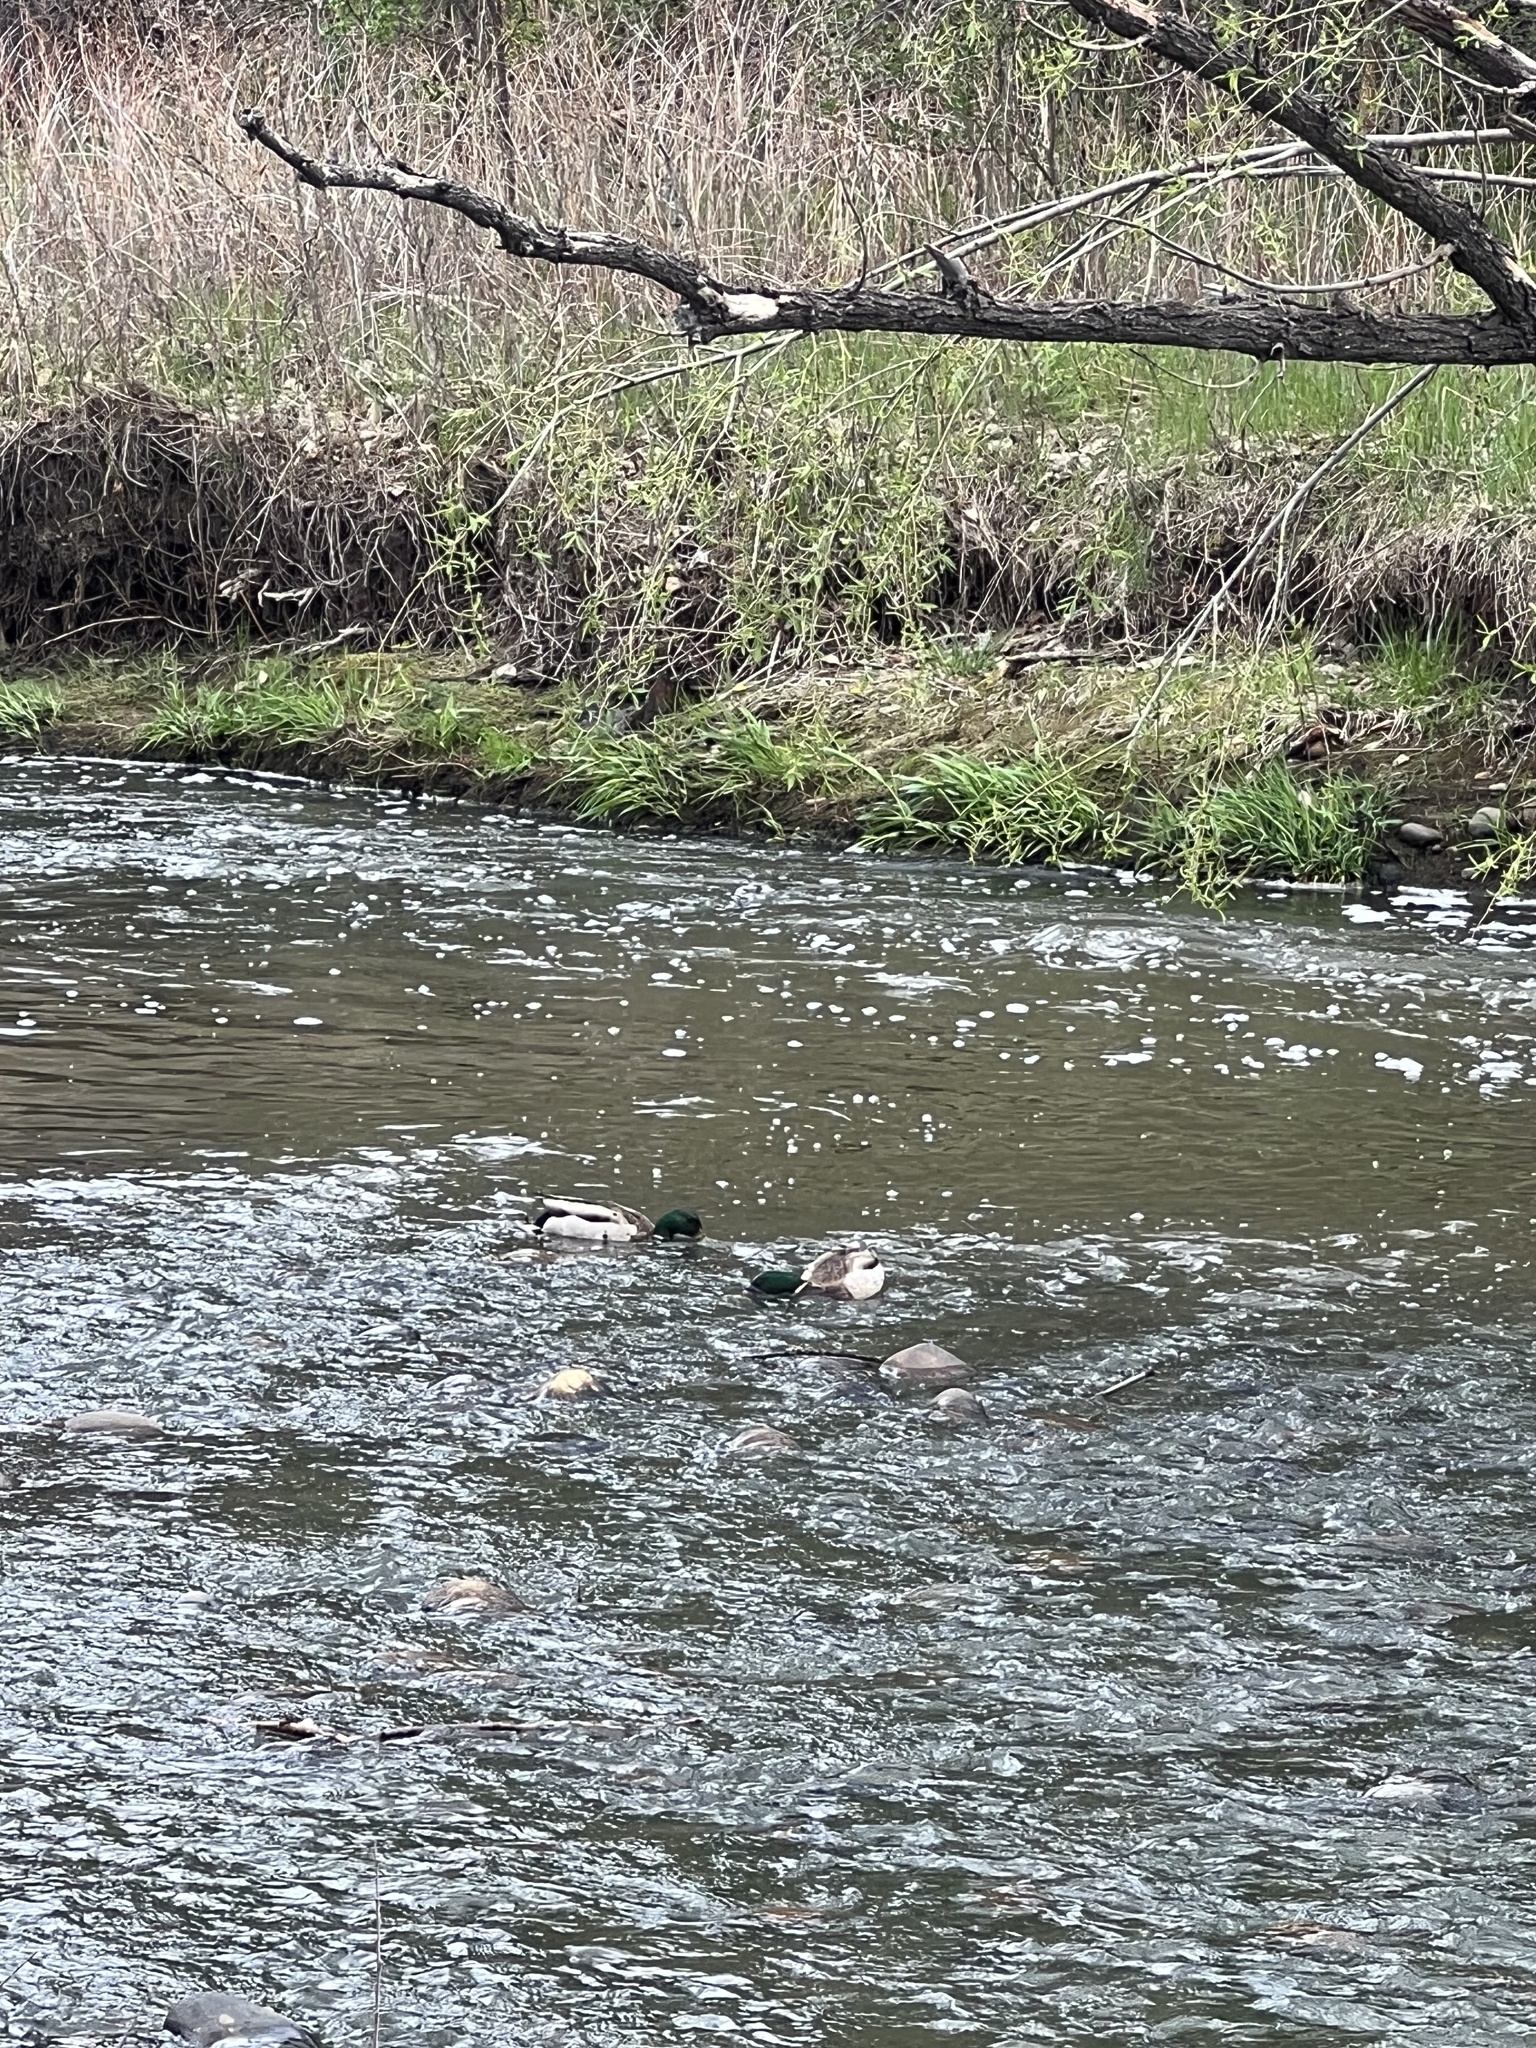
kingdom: Animalia
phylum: Chordata
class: Aves
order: Anseriformes
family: Anatidae
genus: Anas
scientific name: Anas platyrhynchos
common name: Mallard
